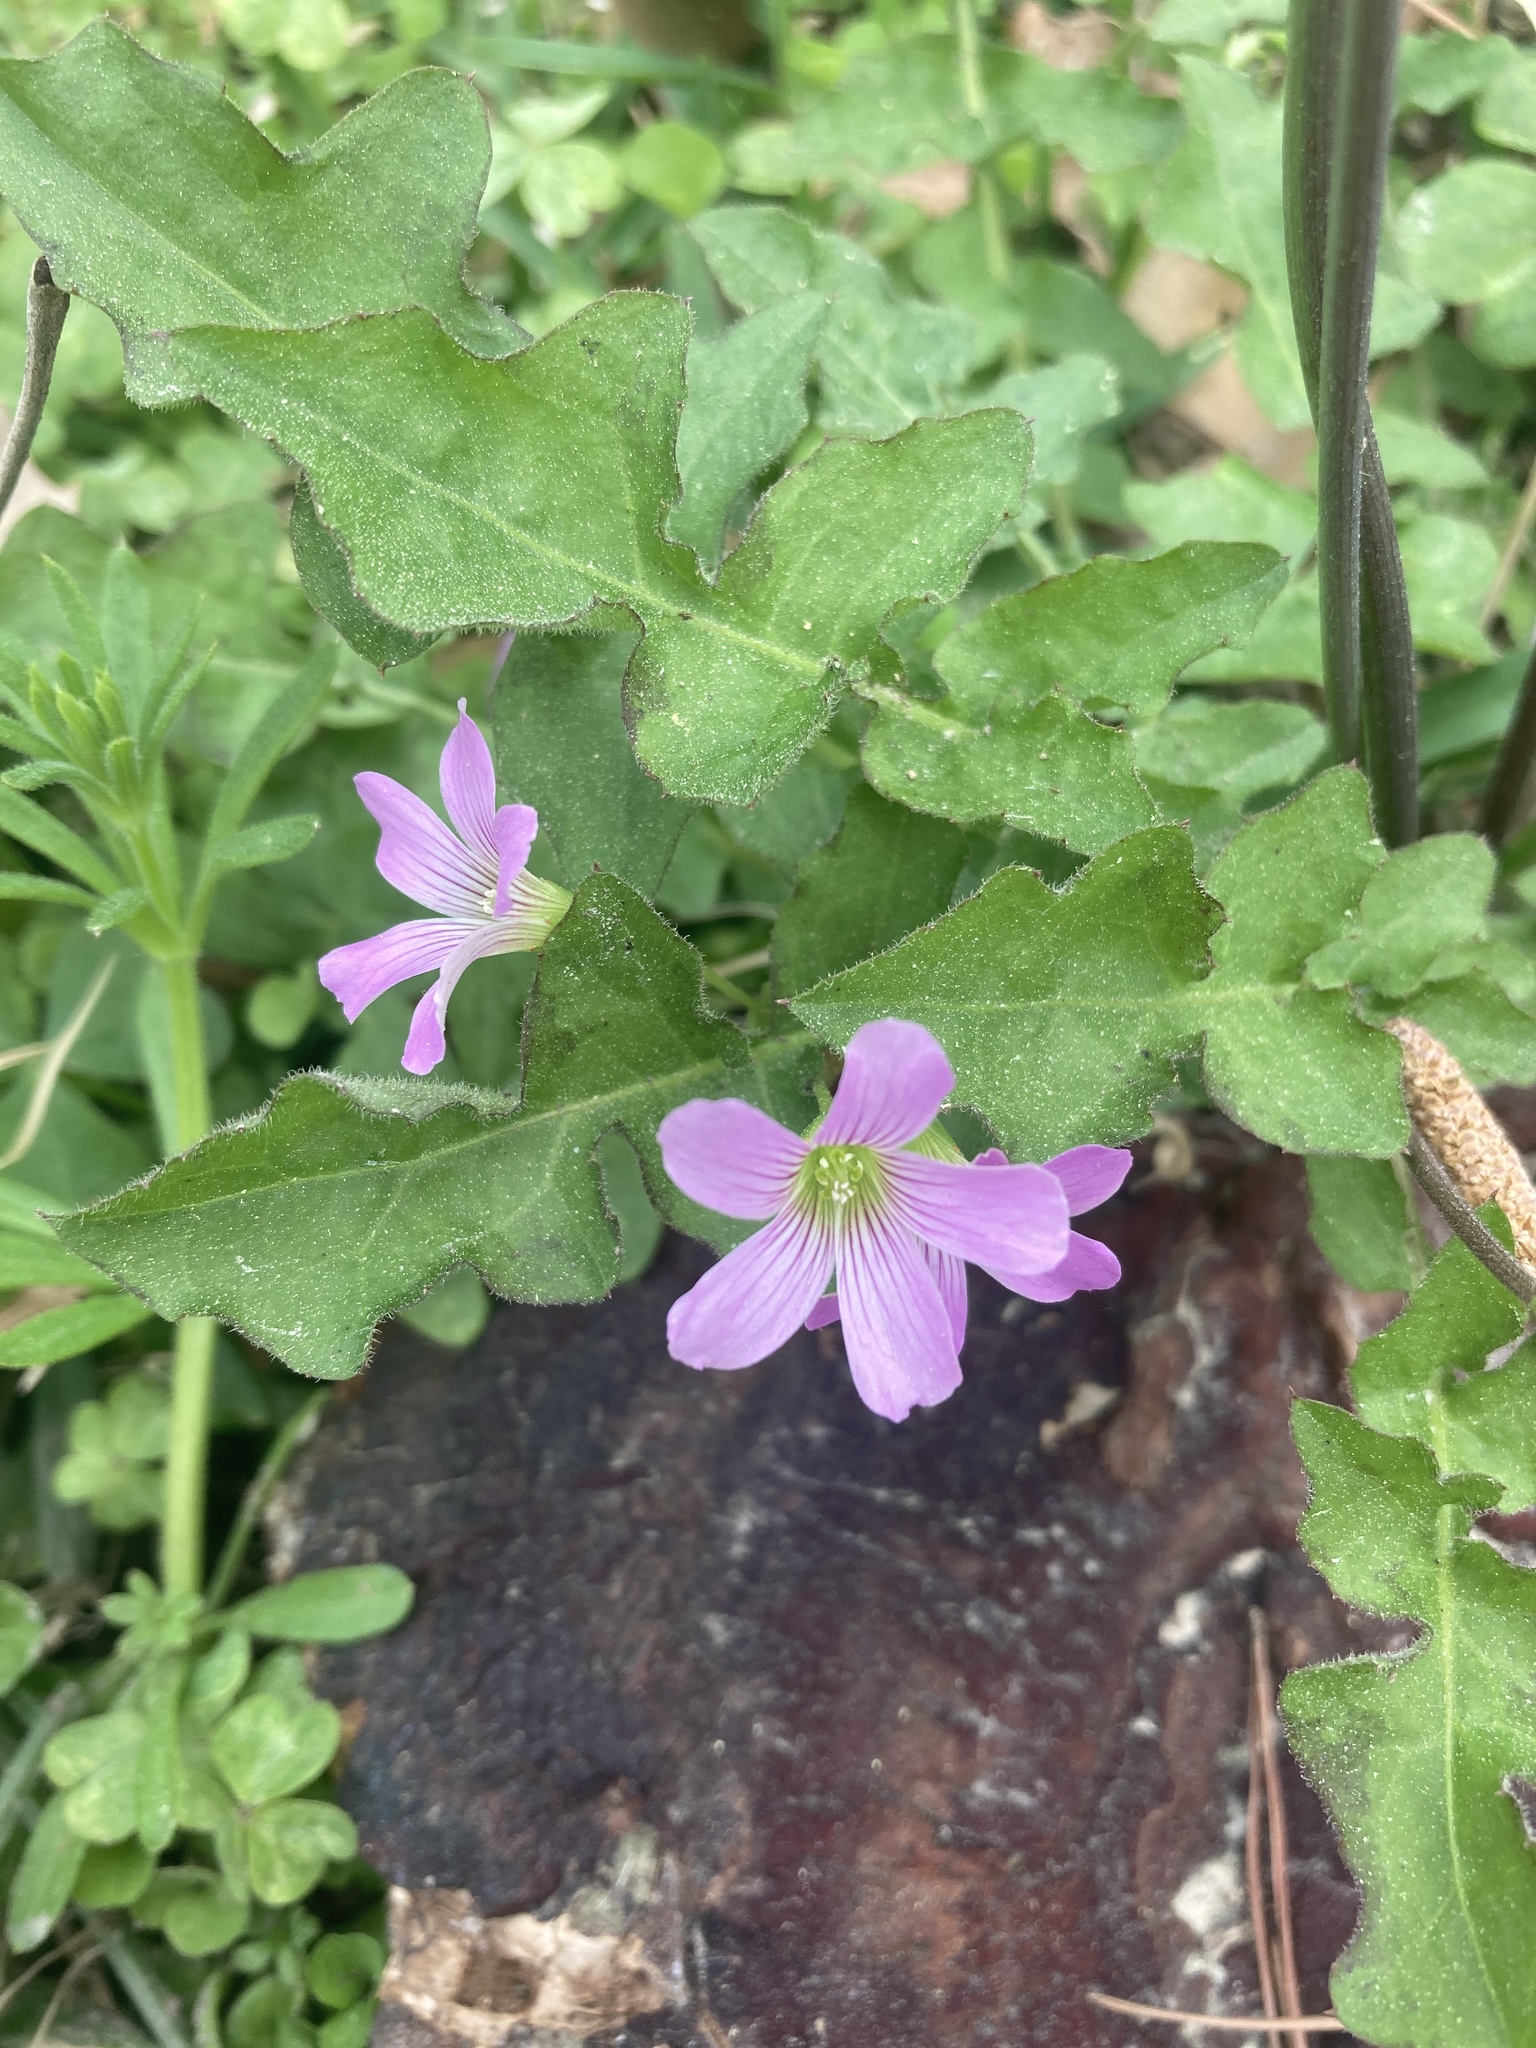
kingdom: Plantae
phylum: Tracheophyta
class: Magnoliopsida
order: Oxalidales
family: Oxalidaceae
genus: Oxalis
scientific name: Oxalis debilis
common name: Large-flowered pink-sorrel
